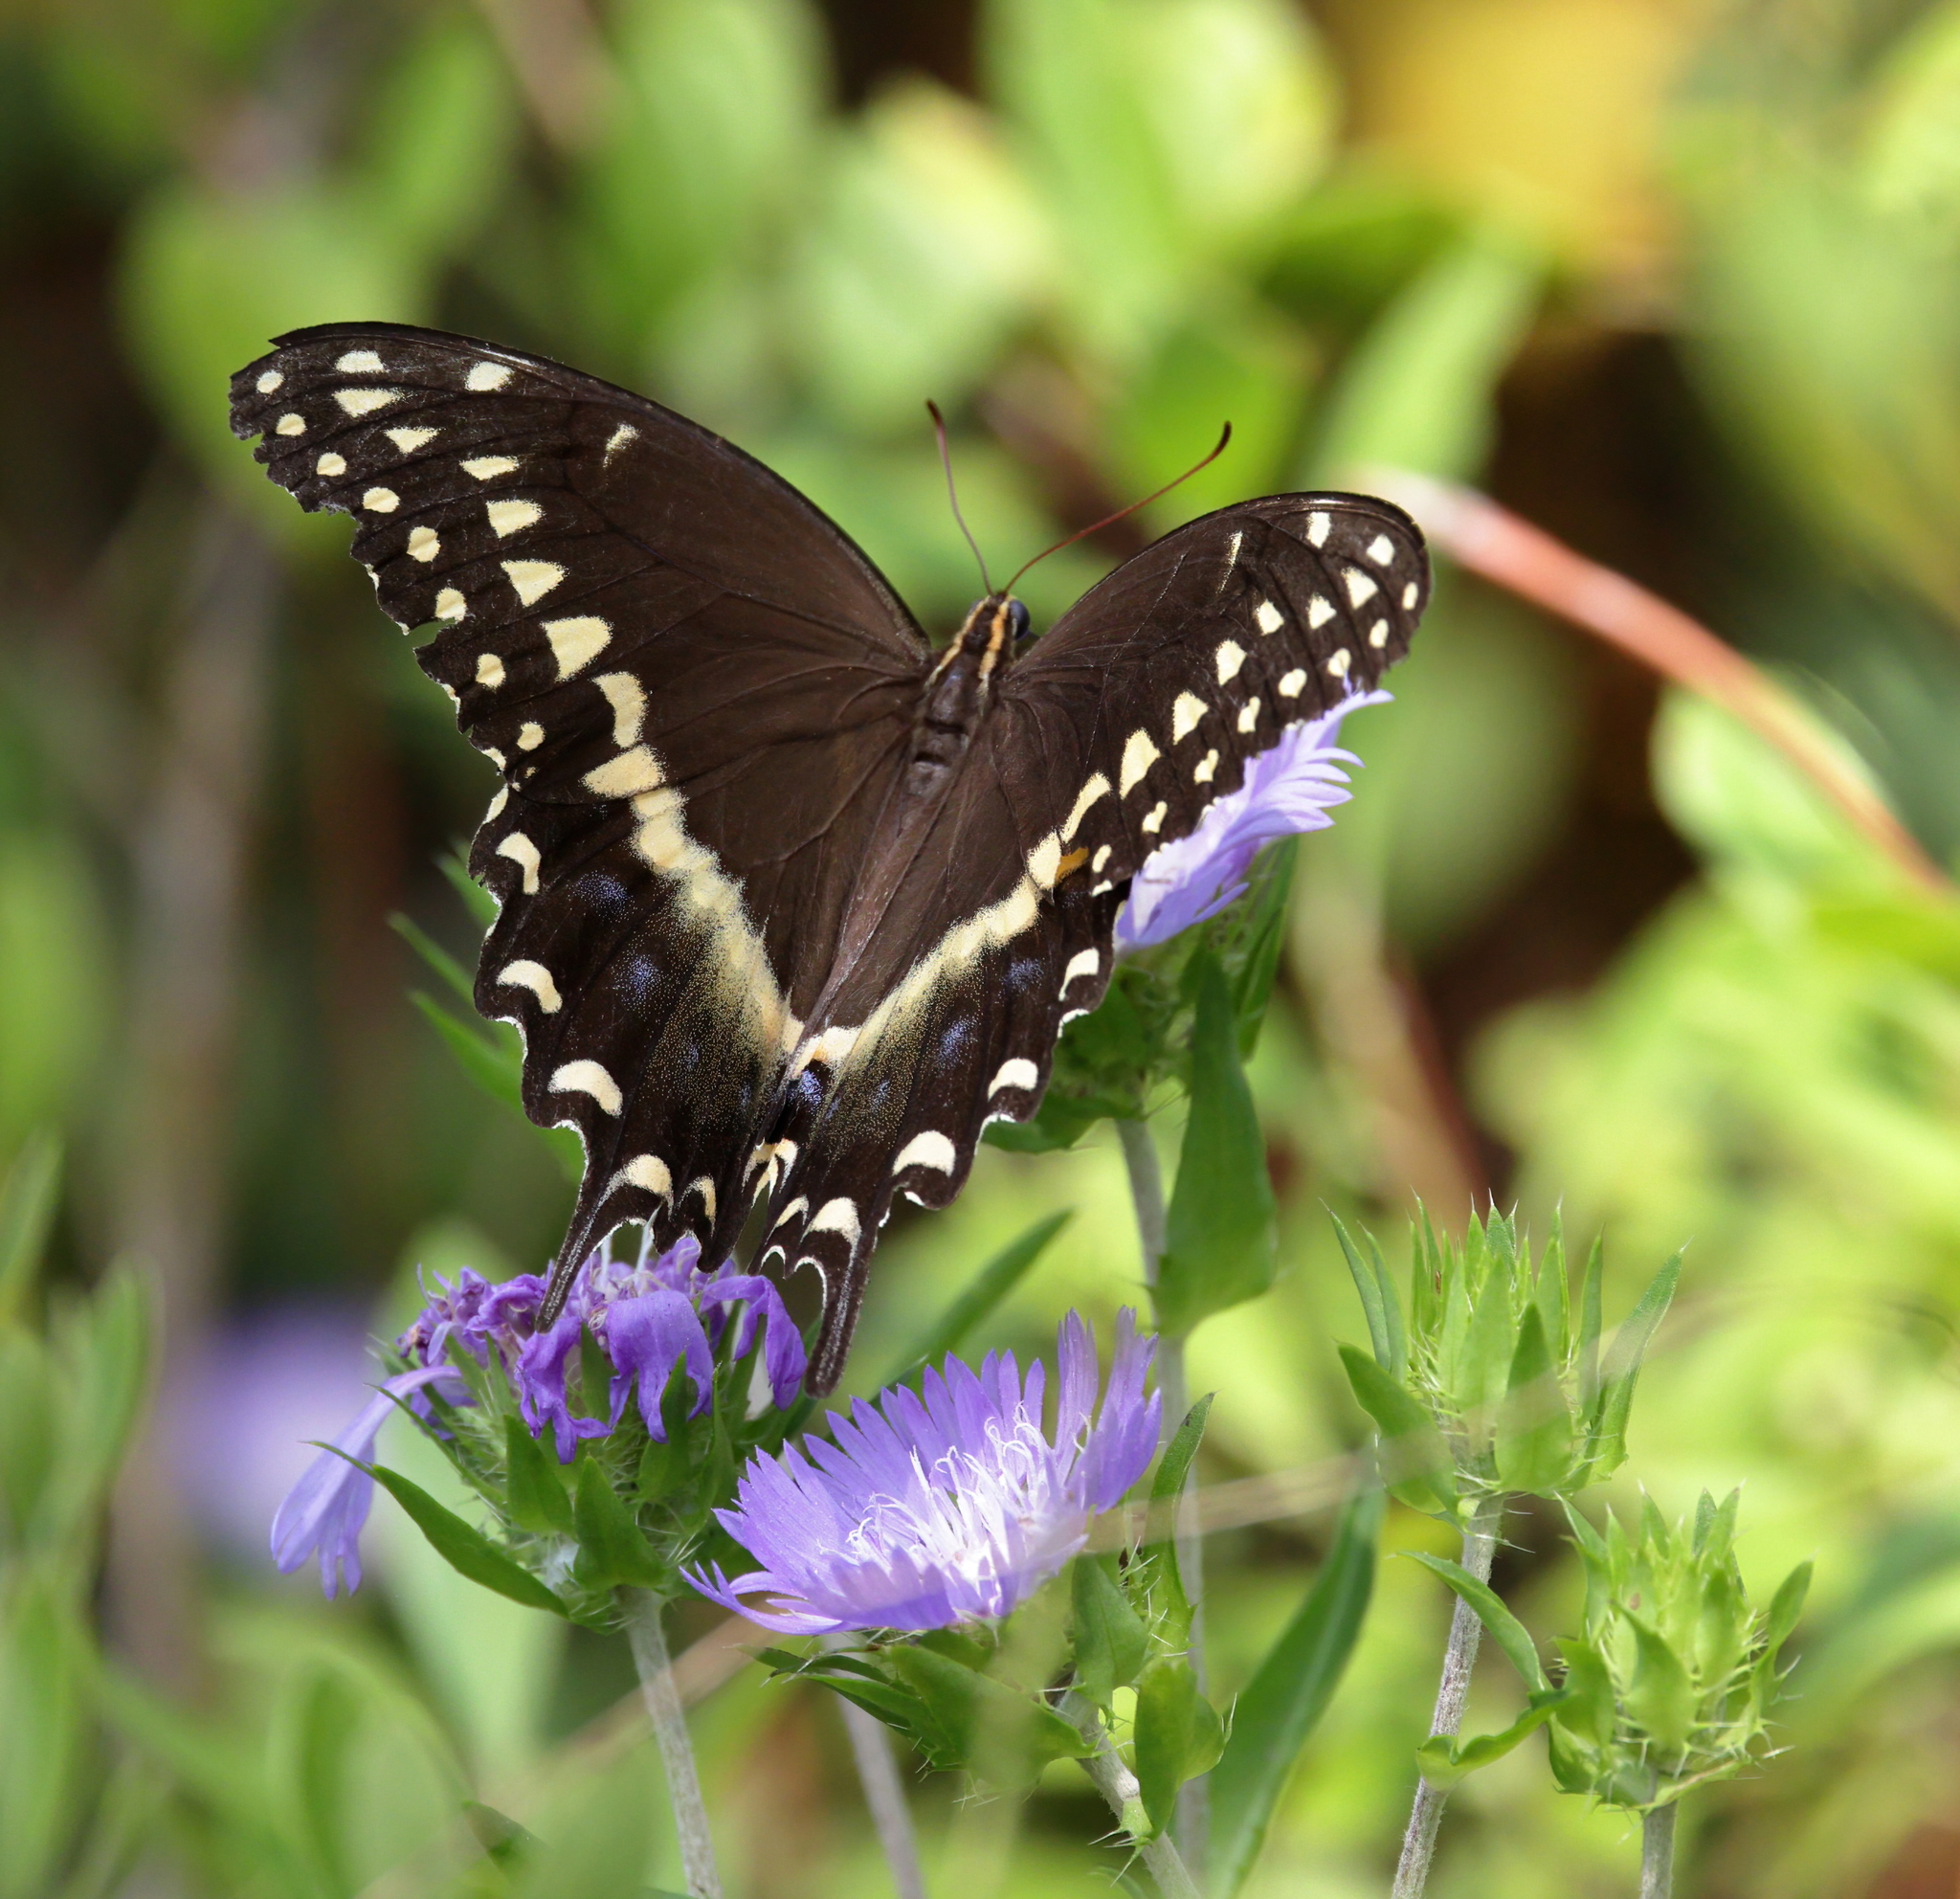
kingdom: Animalia
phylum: Arthropoda
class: Insecta
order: Lepidoptera
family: Papilionidae
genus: Papilio
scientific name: Papilio palamedes
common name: Palamedes swallowtail
